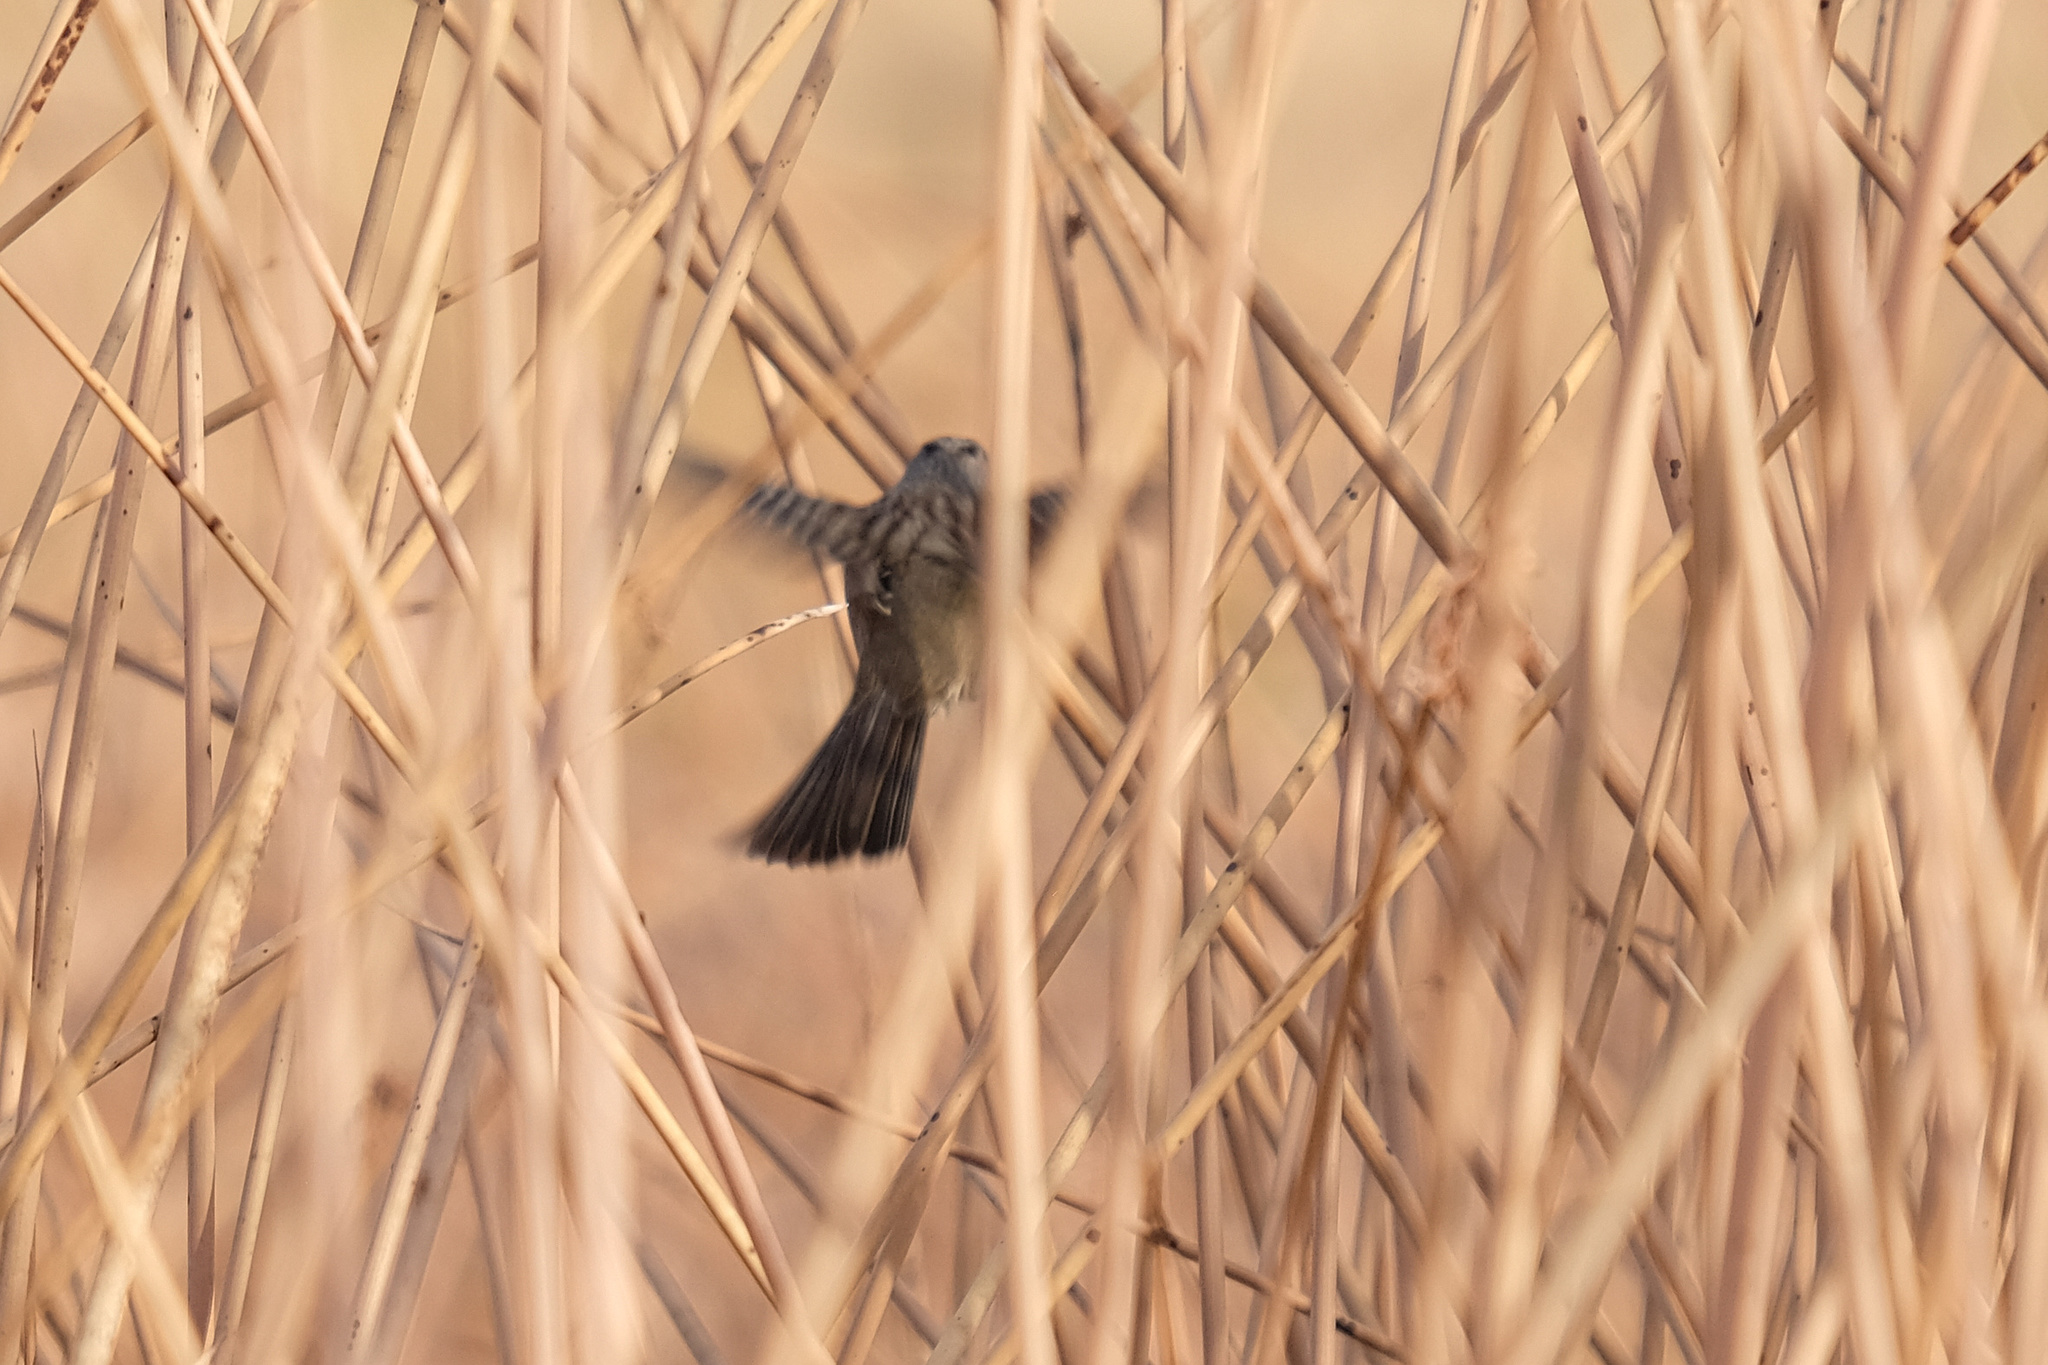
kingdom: Animalia
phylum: Chordata
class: Aves
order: Passeriformes
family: Passerellidae
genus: Zonotrichia
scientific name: Zonotrichia leucophrys
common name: White-crowned sparrow
